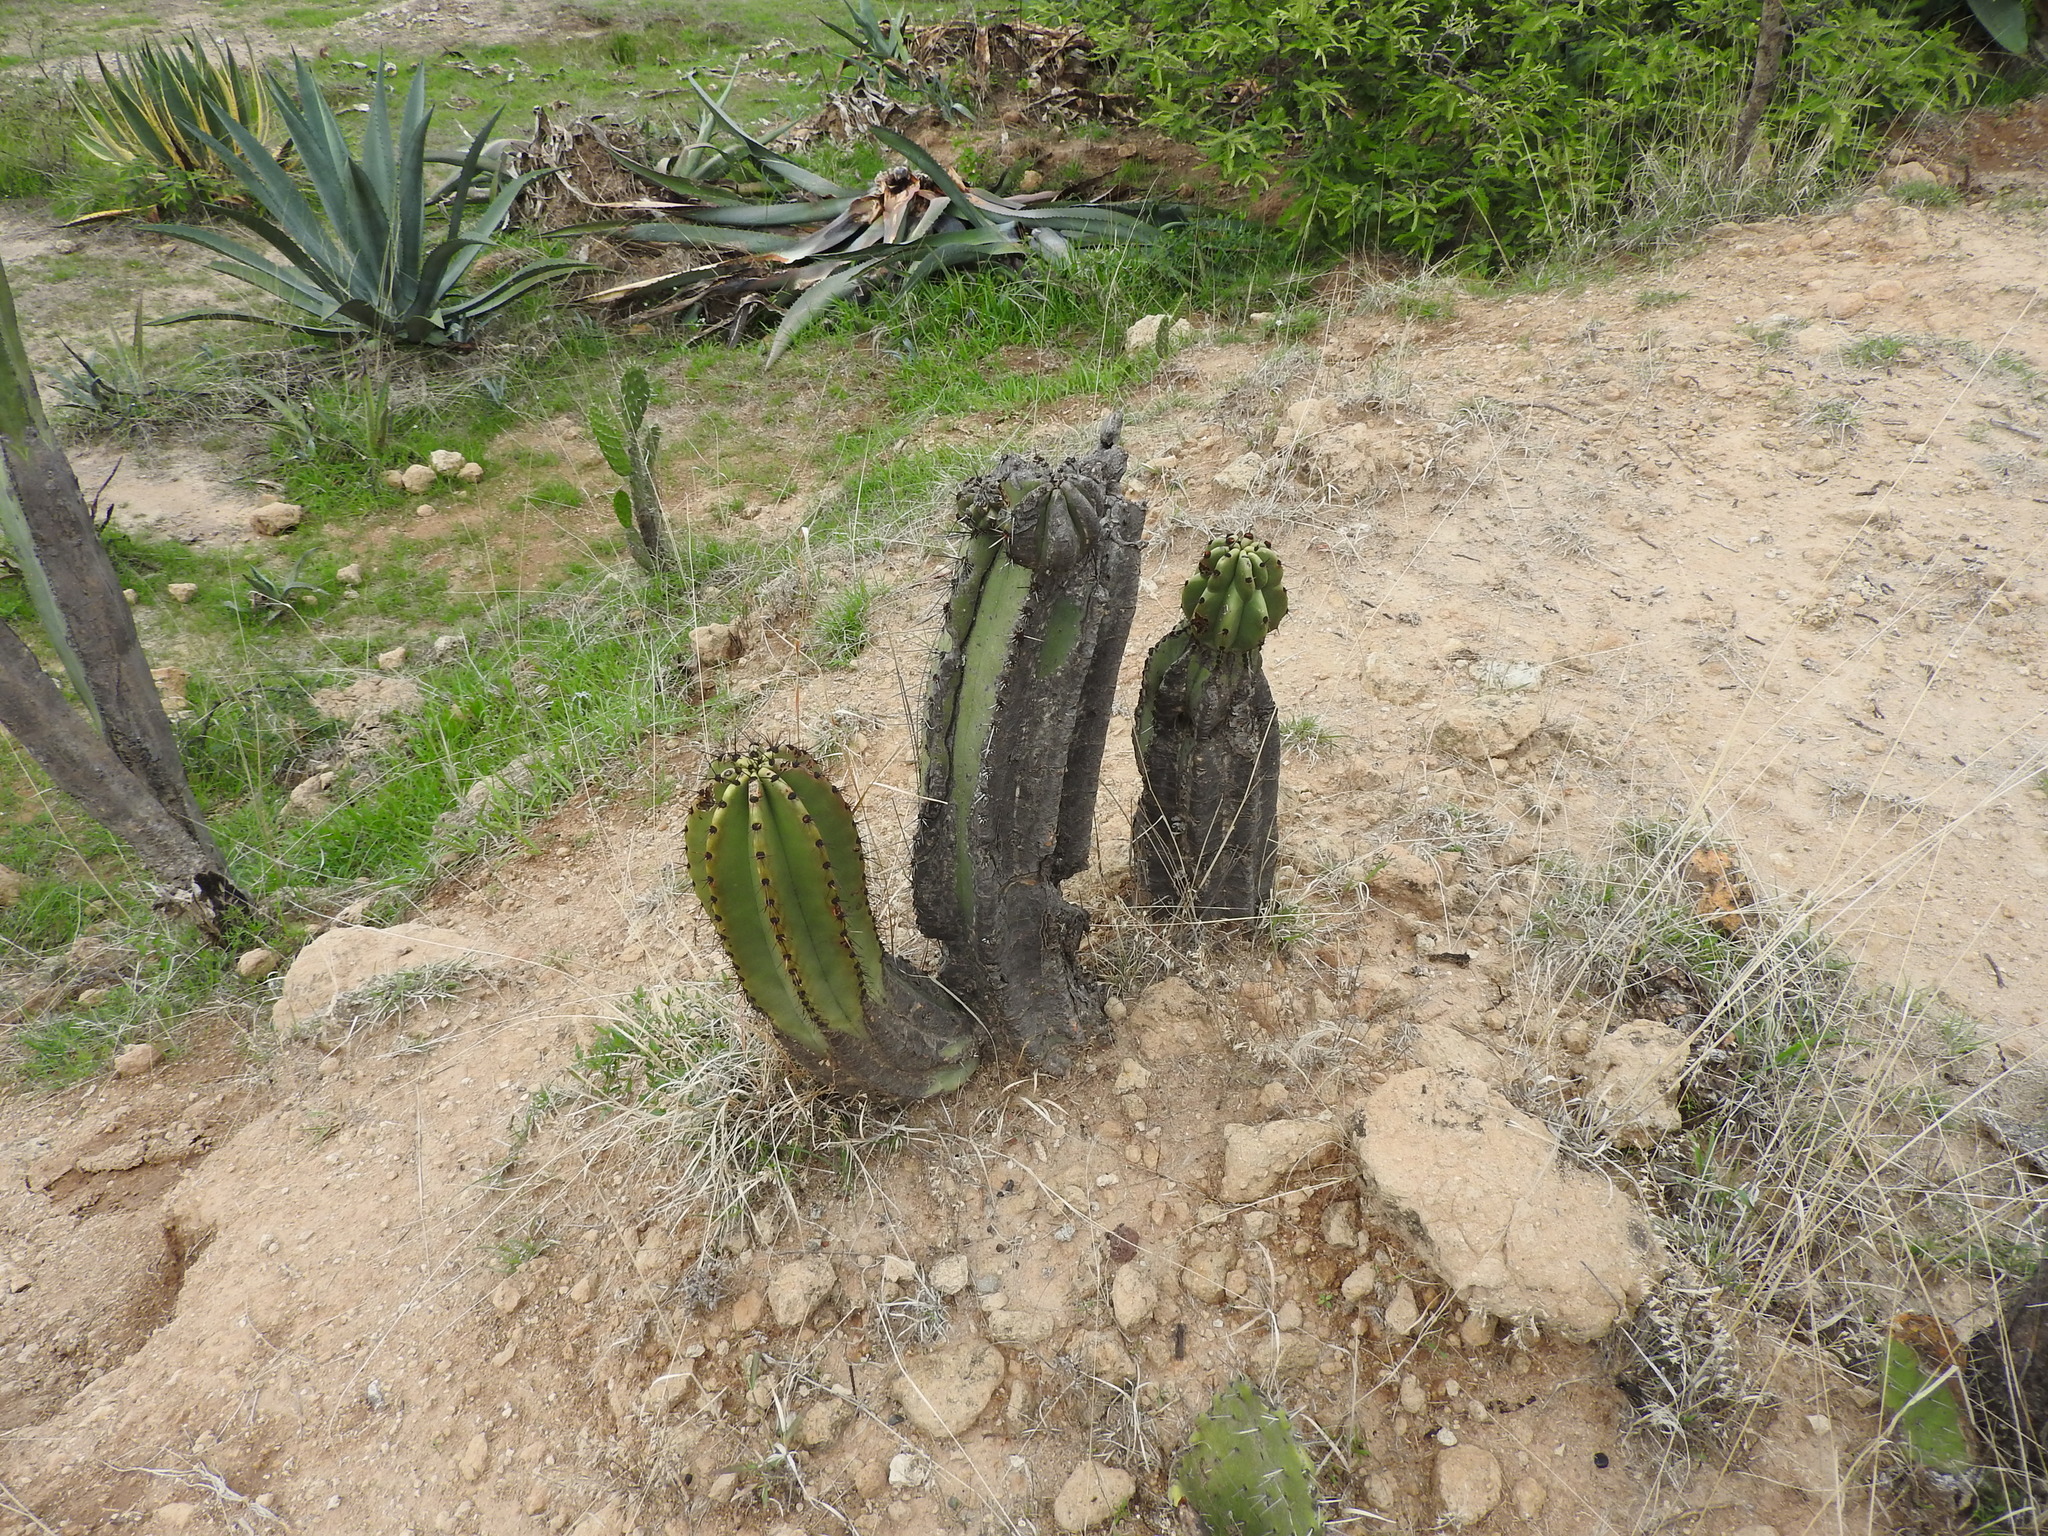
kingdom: Plantae
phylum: Tracheophyta
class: Magnoliopsida
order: Caryophyllales
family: Cactaceae
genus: Stenocereus
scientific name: Stenocereus queretaroensis
